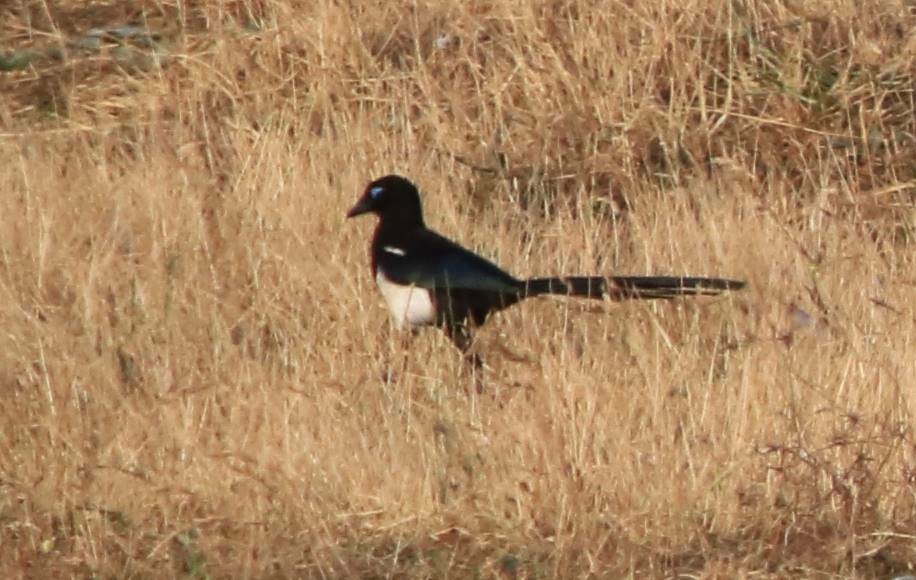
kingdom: Animalia
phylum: Chordata
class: Aves
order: Passeriformes
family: Corvidae
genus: Pica
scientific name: Pica mauritanica
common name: Maghreb magpie
